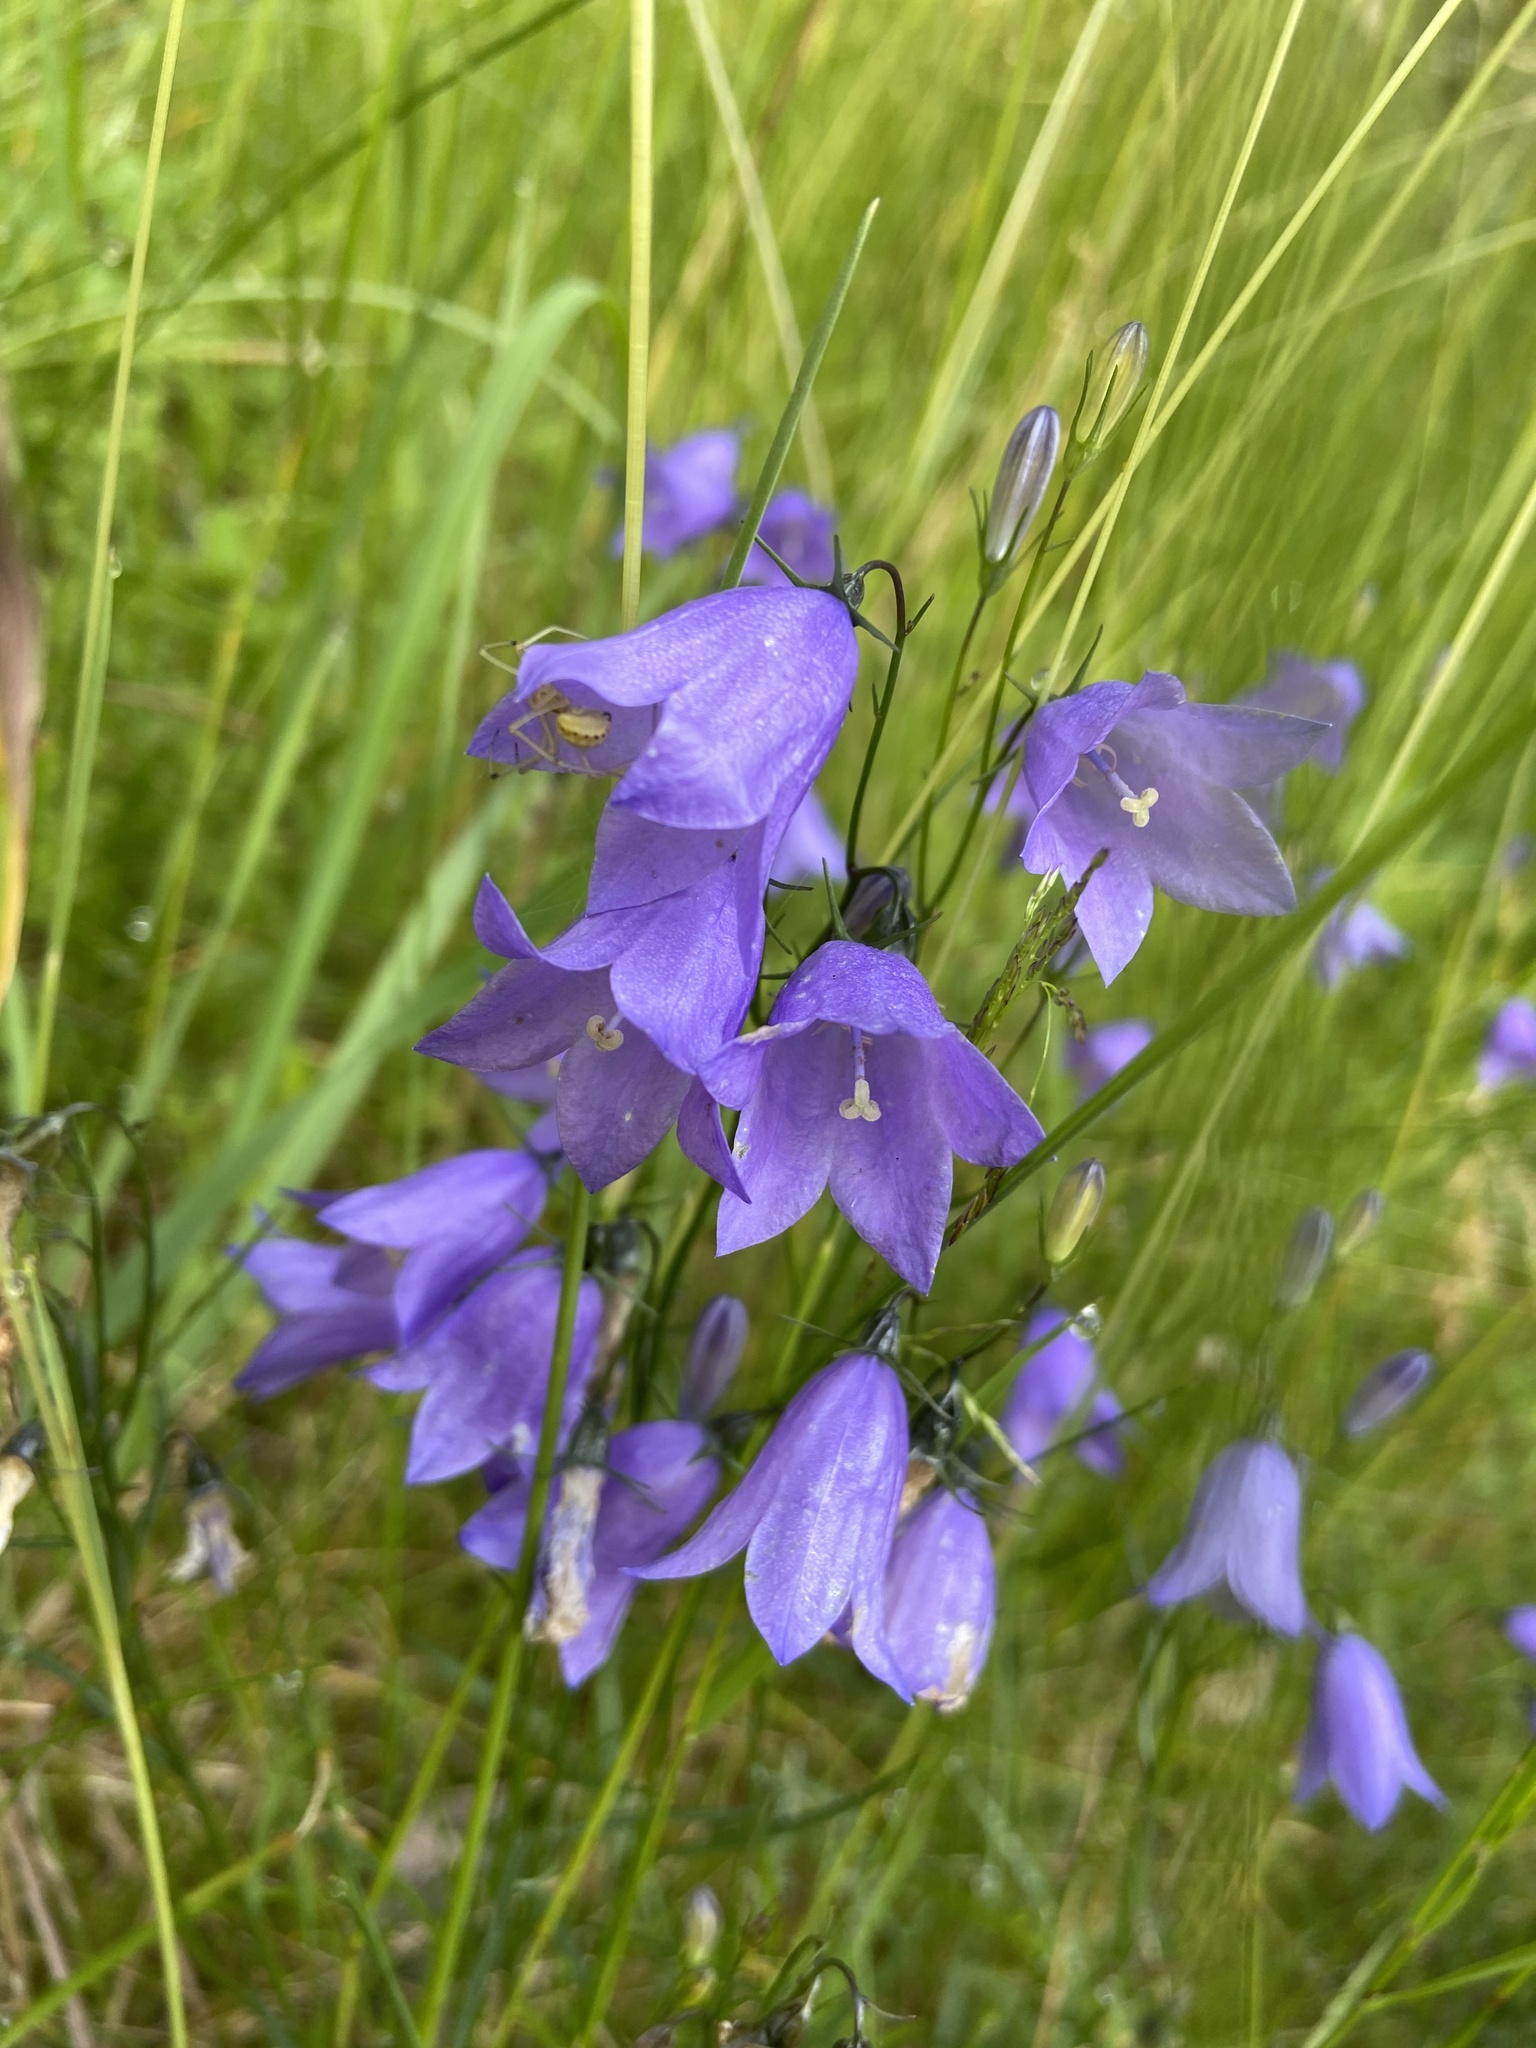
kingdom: Plantae
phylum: Tracheophyta
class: Magnoliopsida
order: Asterales
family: Campanulaceae
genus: Campanula
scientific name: Campanula rotundifolia
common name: Harebell
